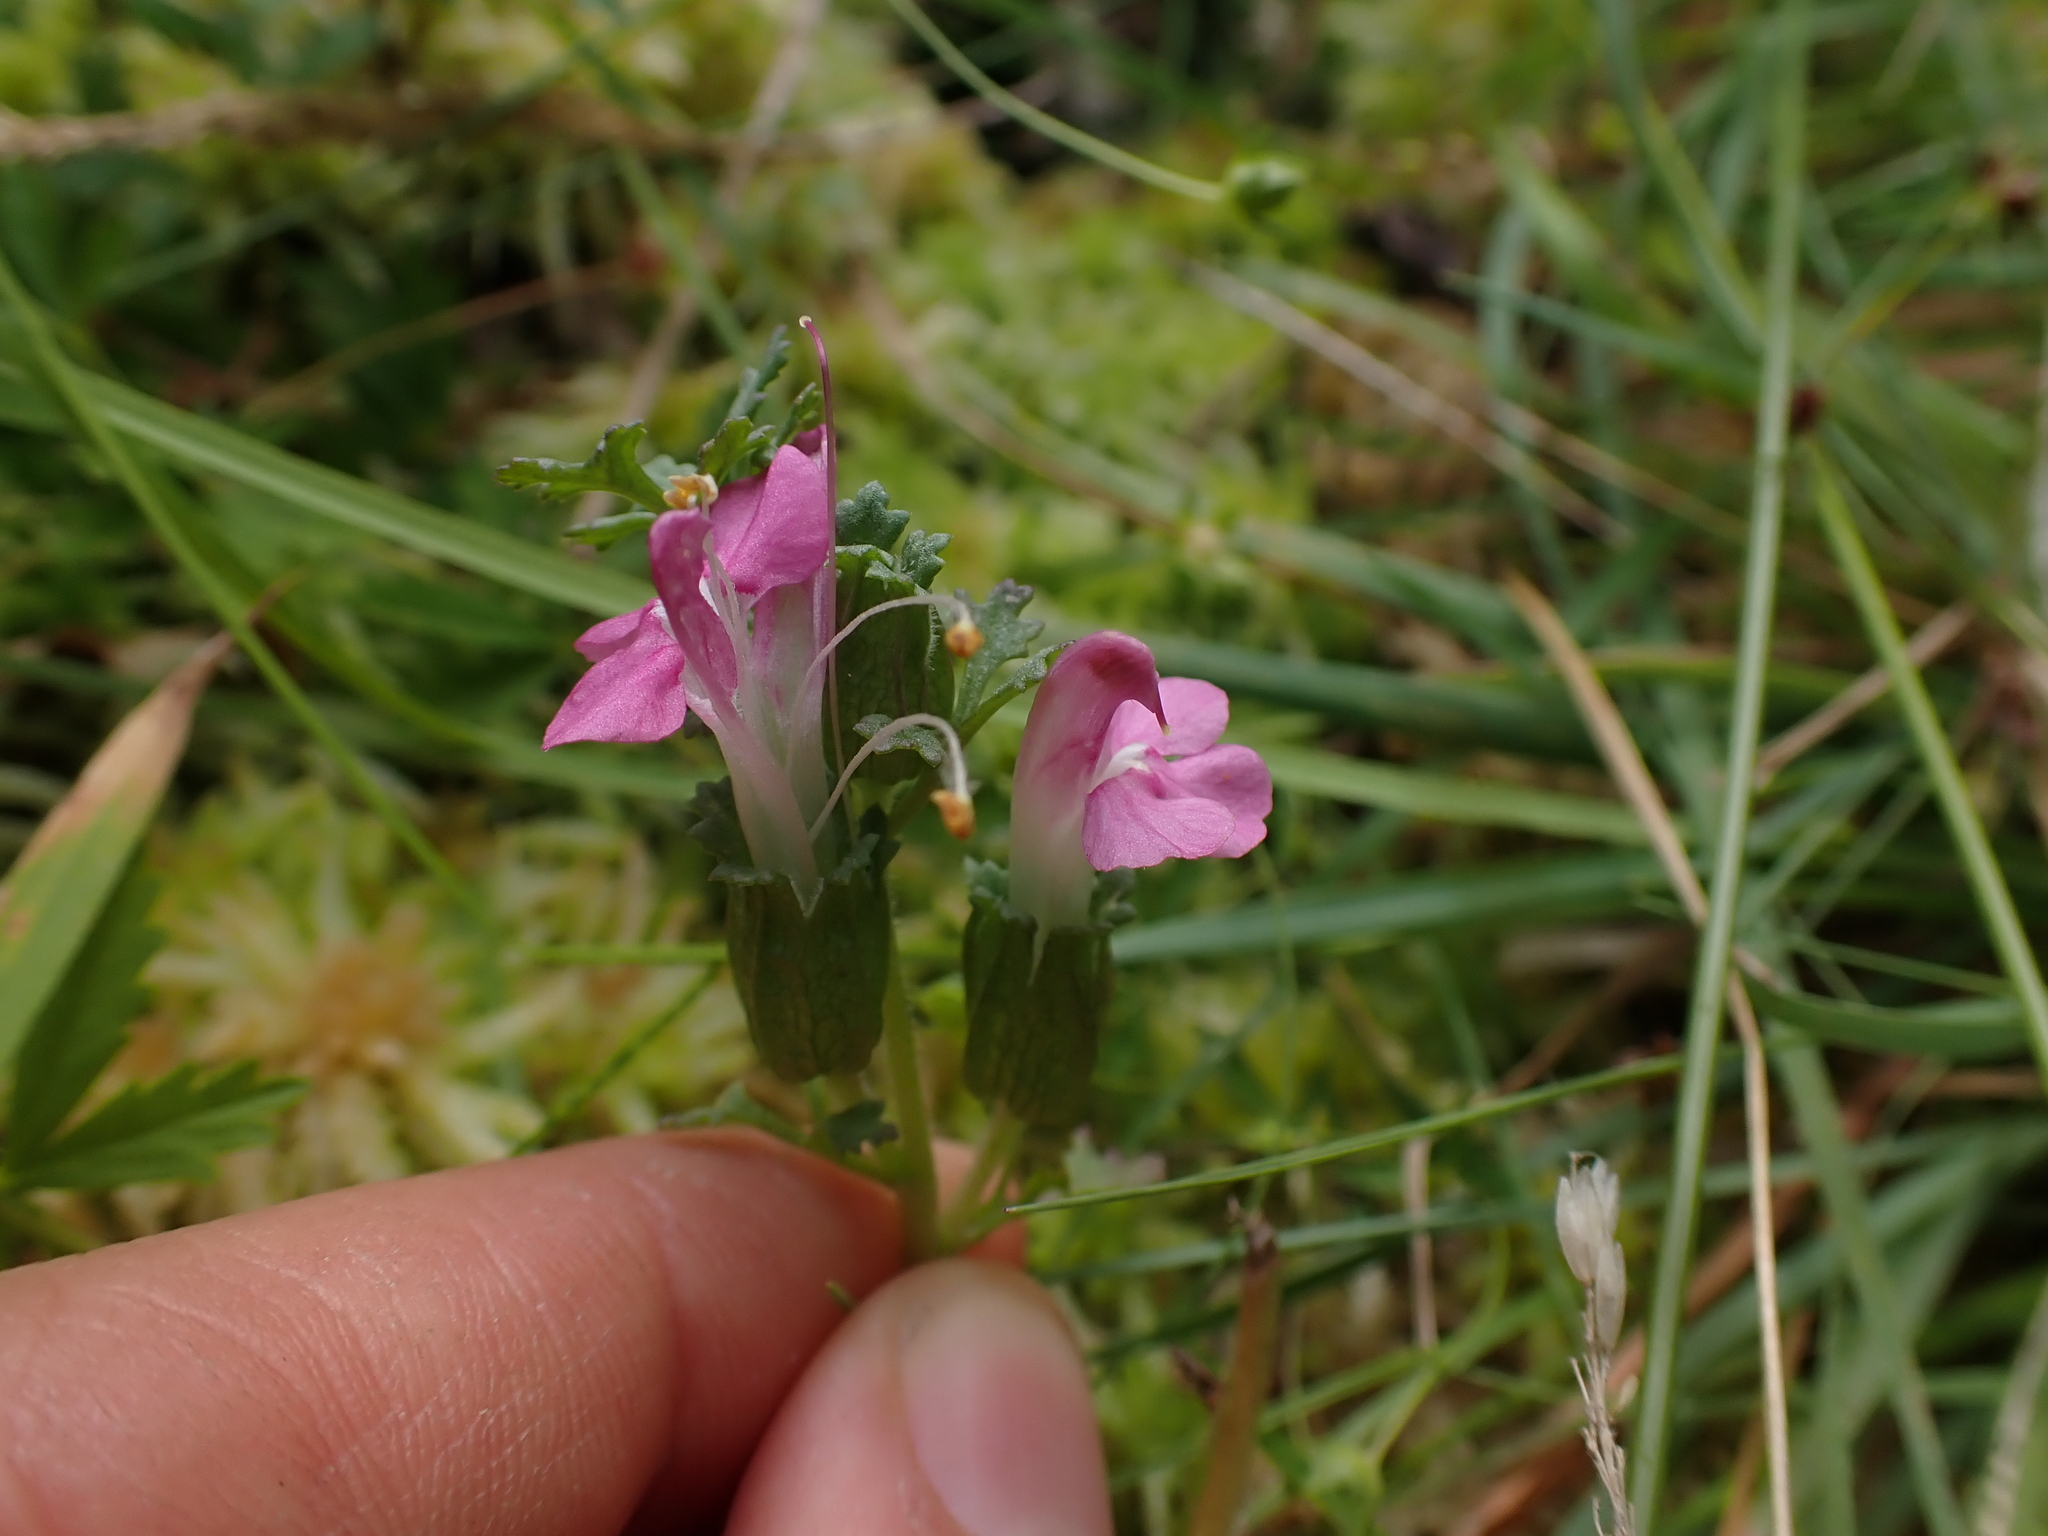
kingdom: Plantae
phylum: Tracheophyta
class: Magnoliopsida
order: Lamiales
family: Orobanchaceae
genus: Pedicularis
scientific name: Pedicularis sylvatica
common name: Lousewort
